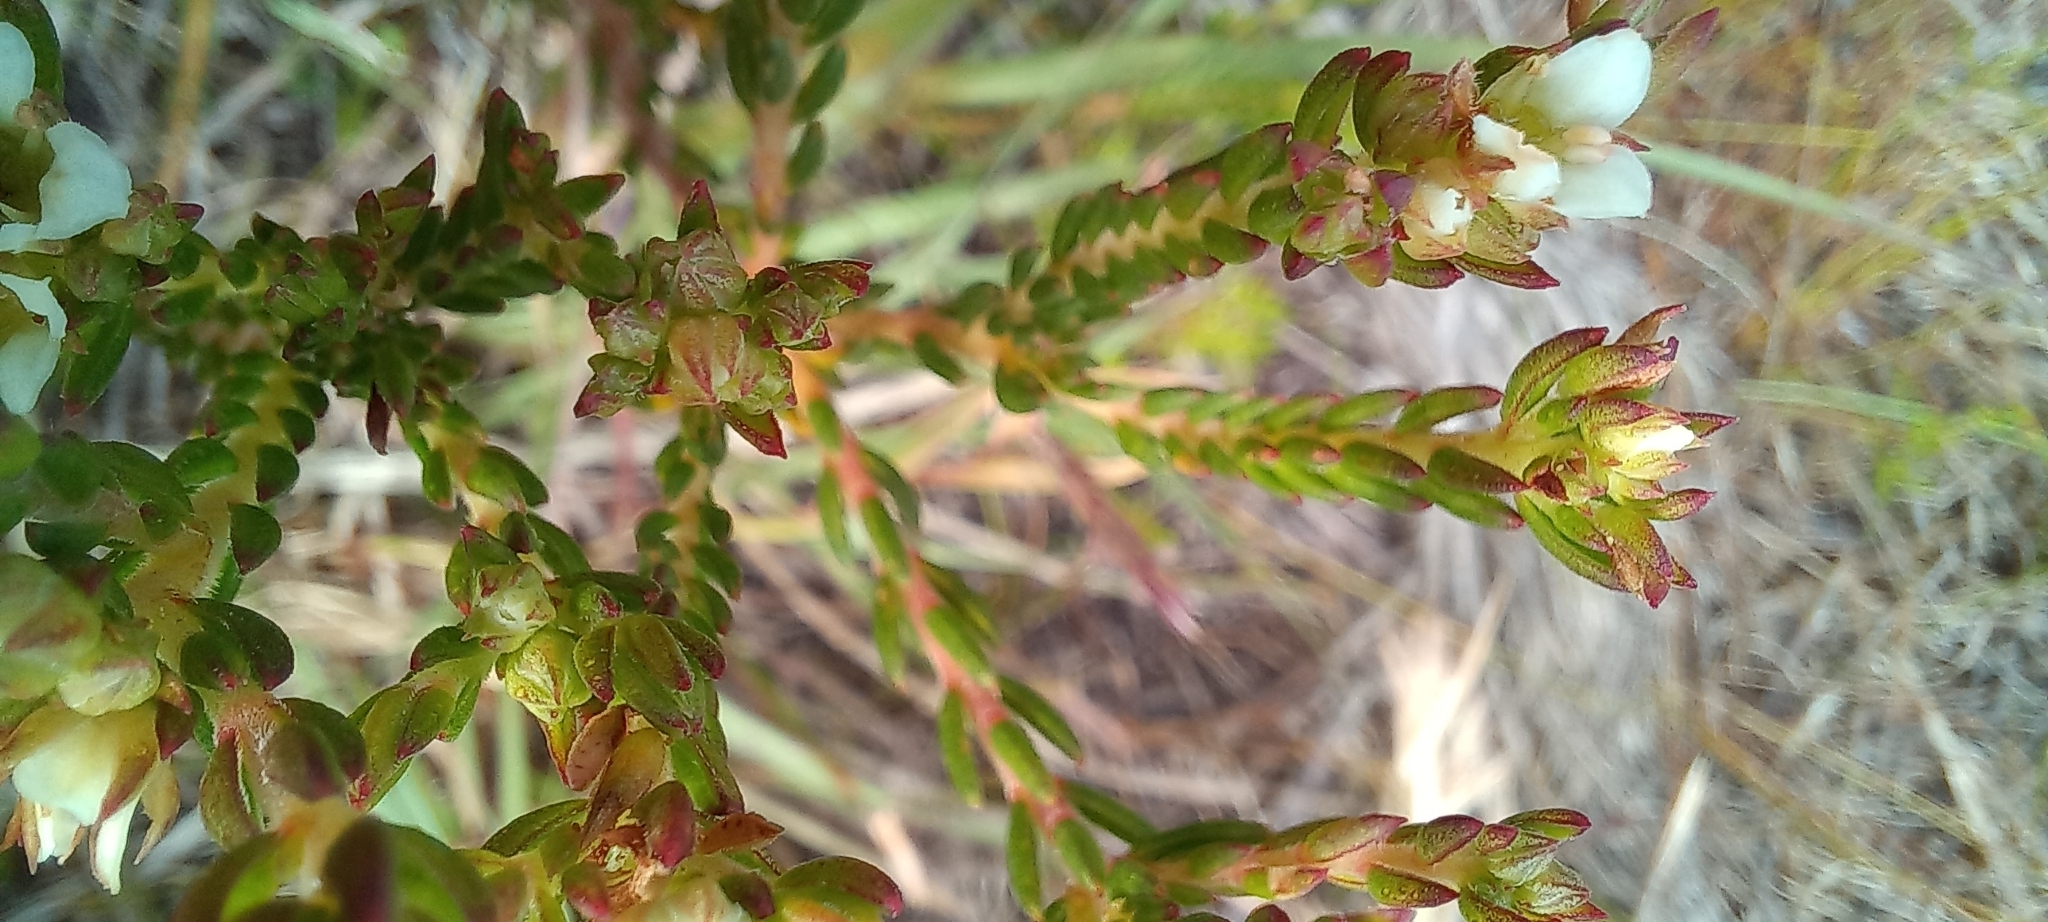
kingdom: Plantae
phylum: Tracheophyta
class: Magnoliopsida
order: Sapindales
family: Rutaceae
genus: Diosma
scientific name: Diosma oppositifolia
